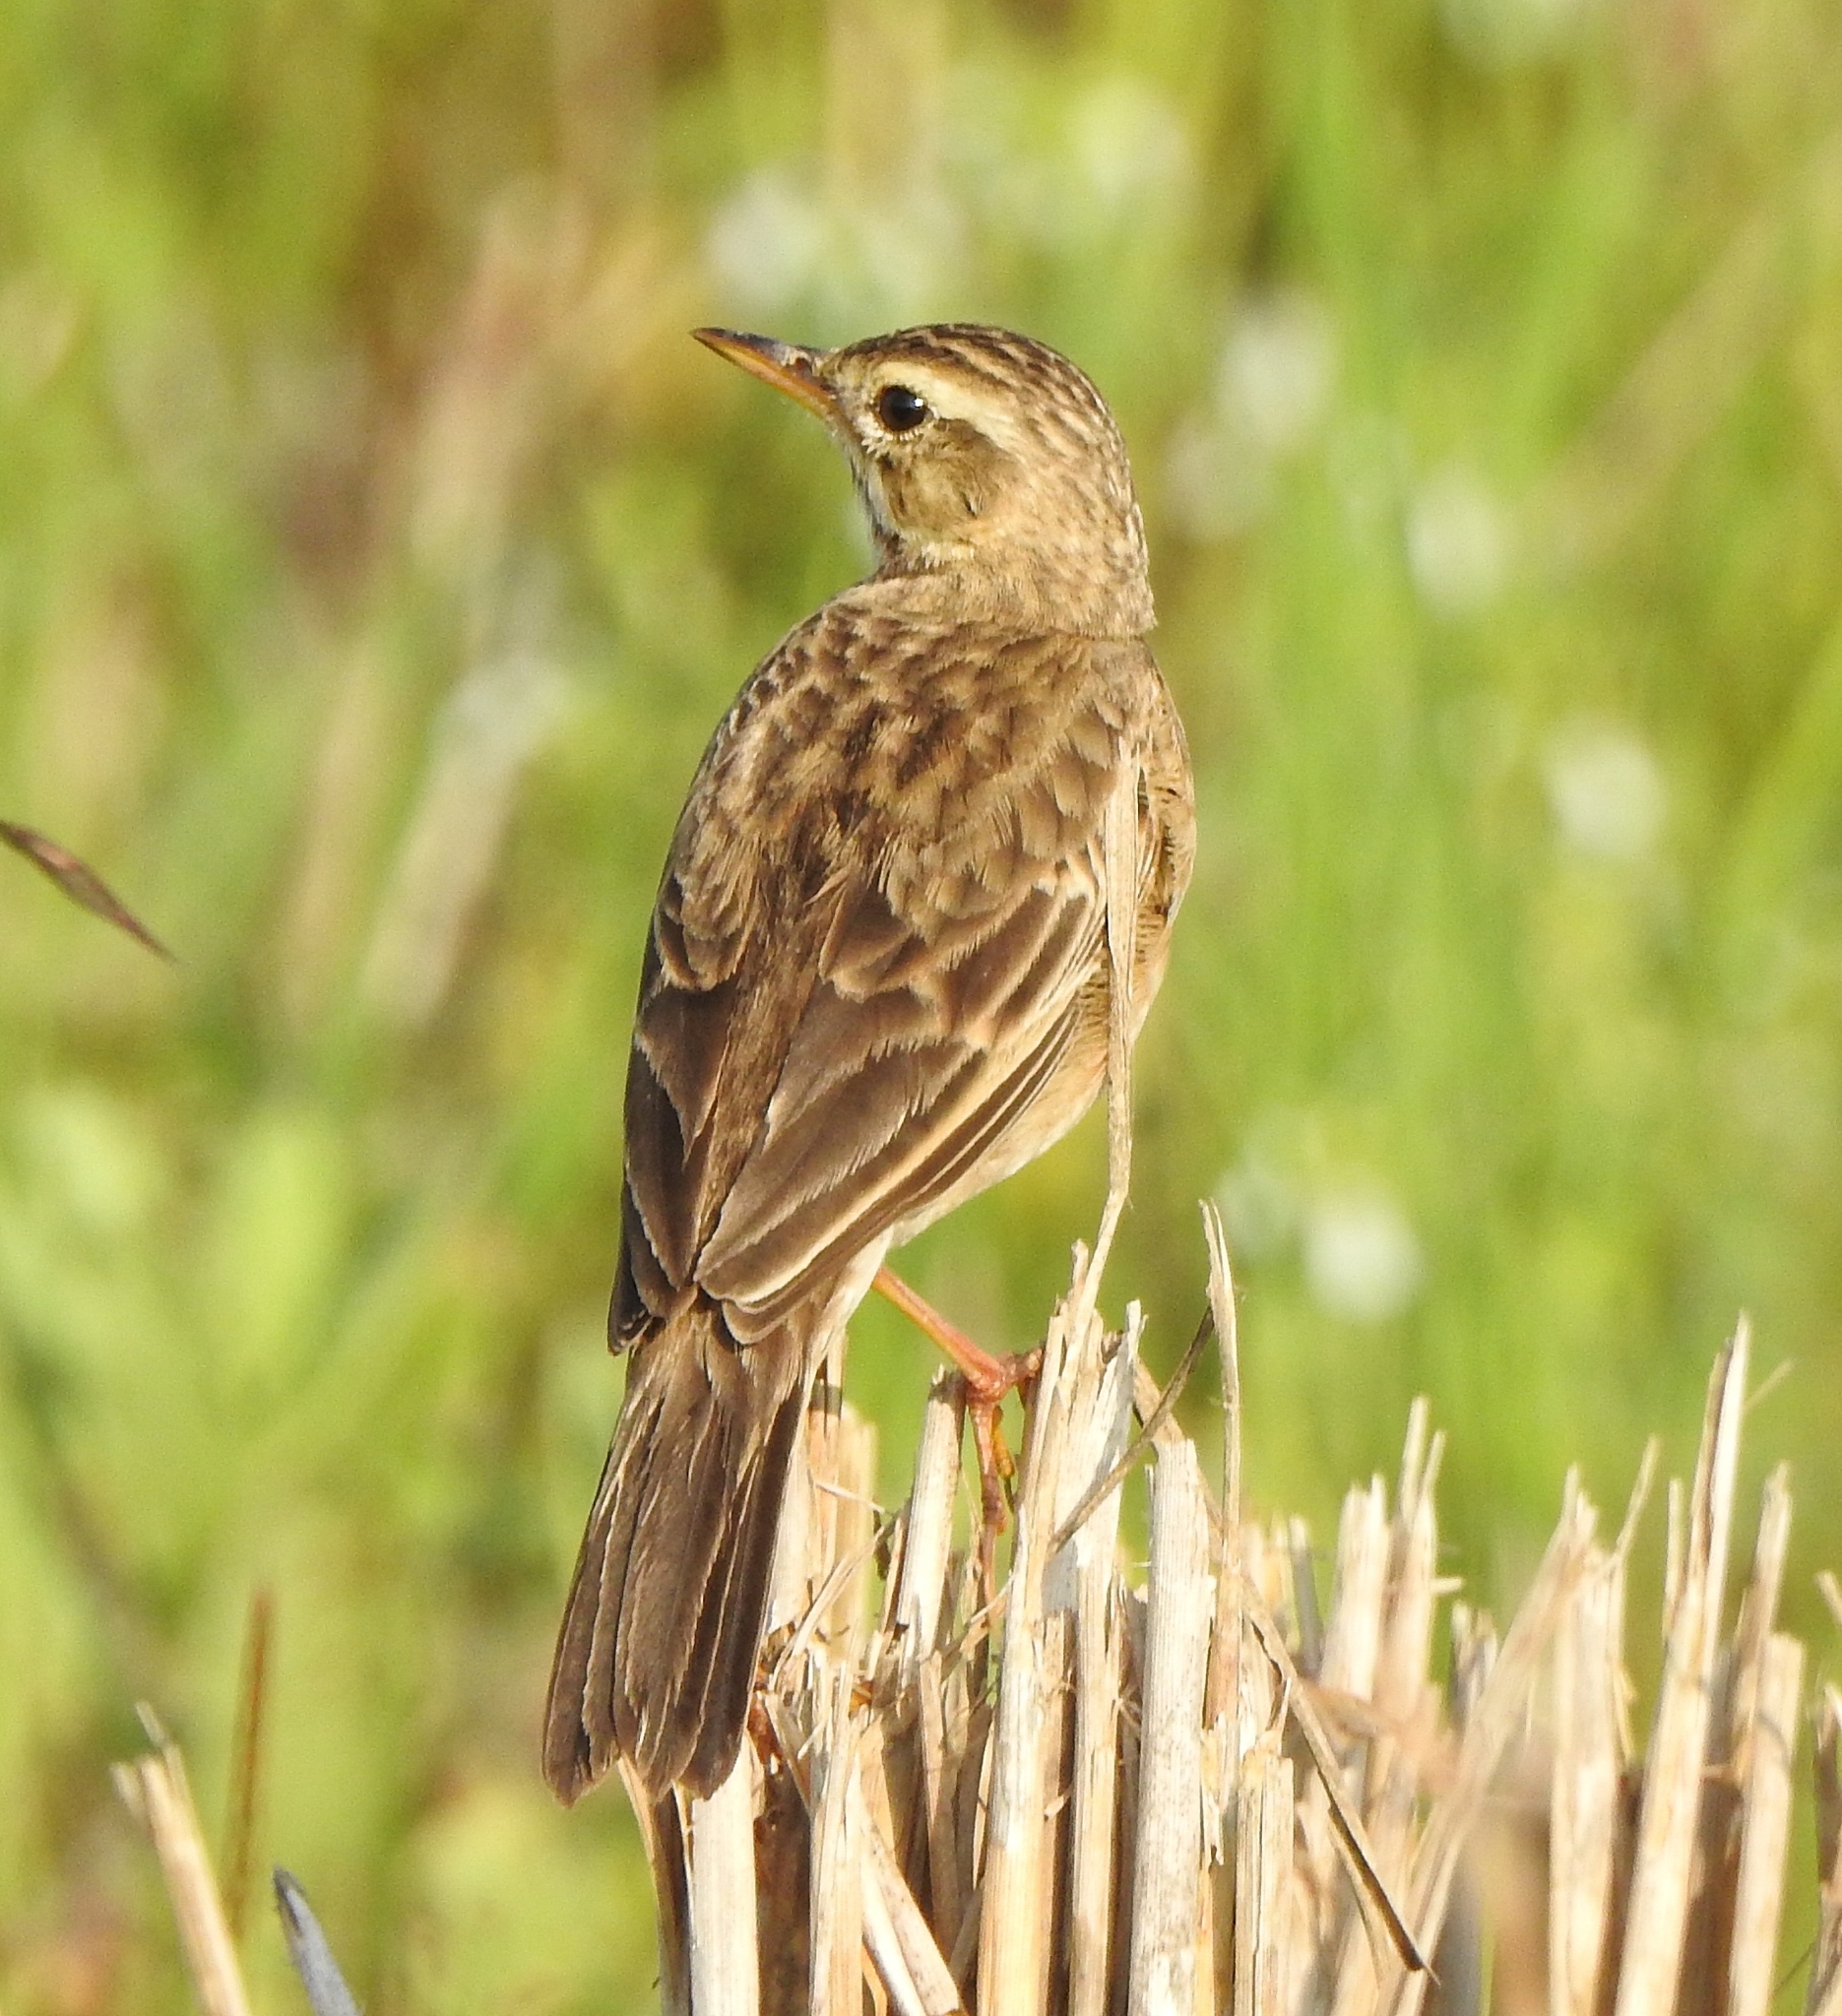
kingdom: Animalia
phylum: Chordata
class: Aves
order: Passeriformes
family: Motacillidae
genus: Anthus
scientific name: Anthus rufulus
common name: Paddyfield pipit
